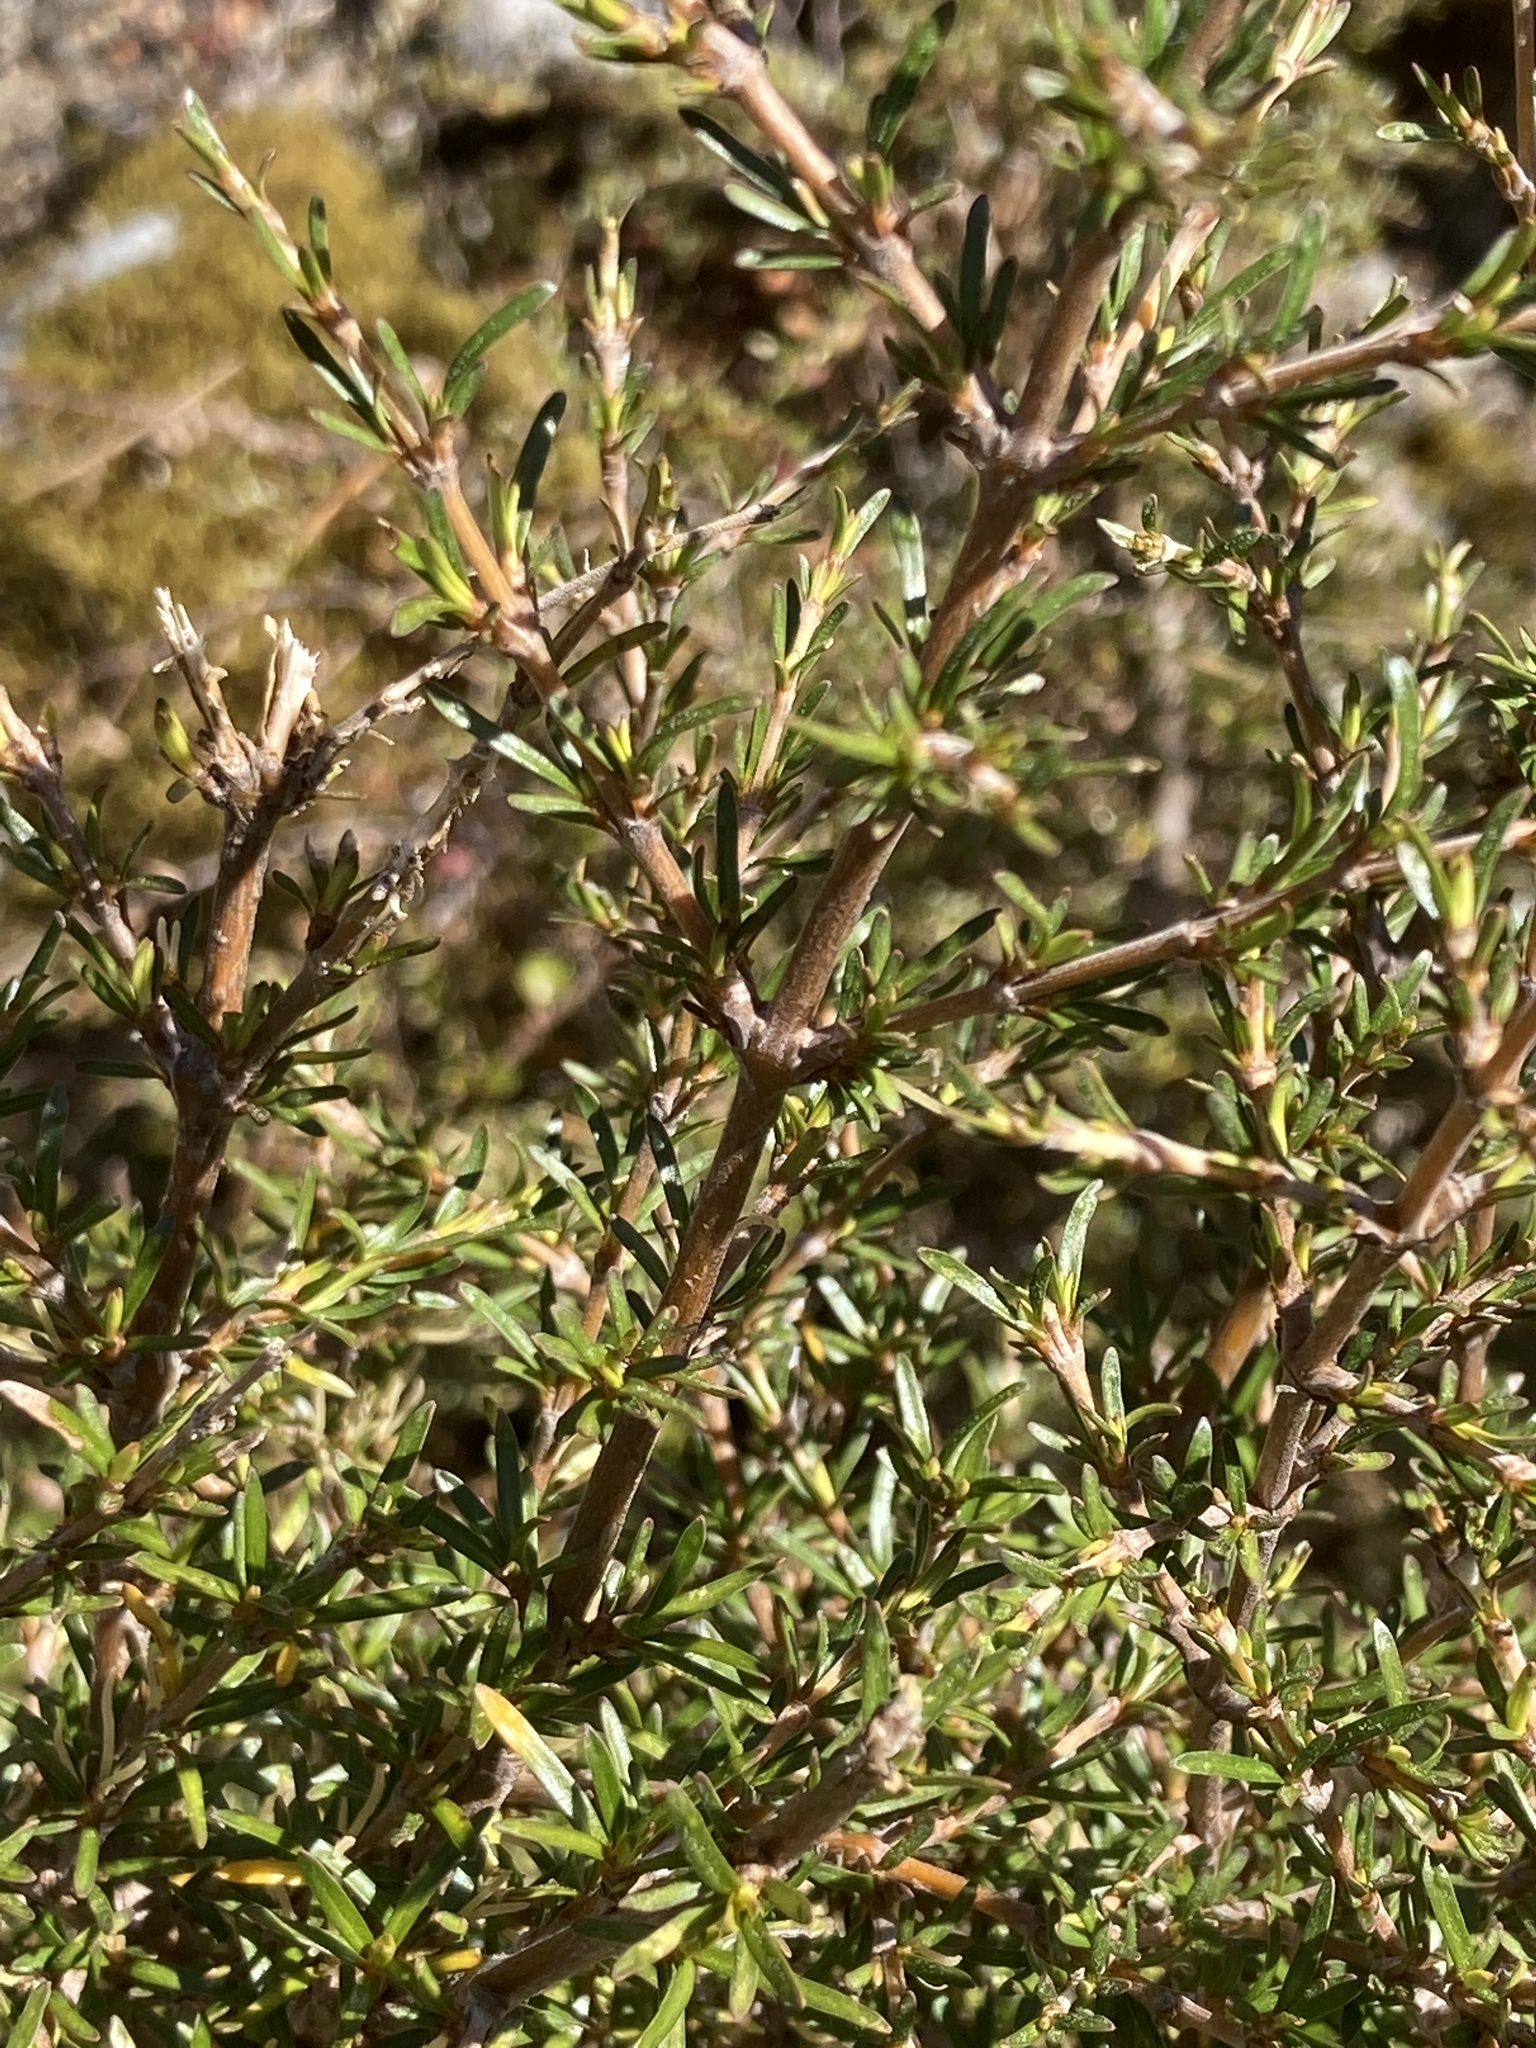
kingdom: Plantae
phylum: Tracheophyta
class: Magnoliopsida
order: Gentianales
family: Rubiaceae
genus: Coprosma
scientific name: Coprosma rugosa
